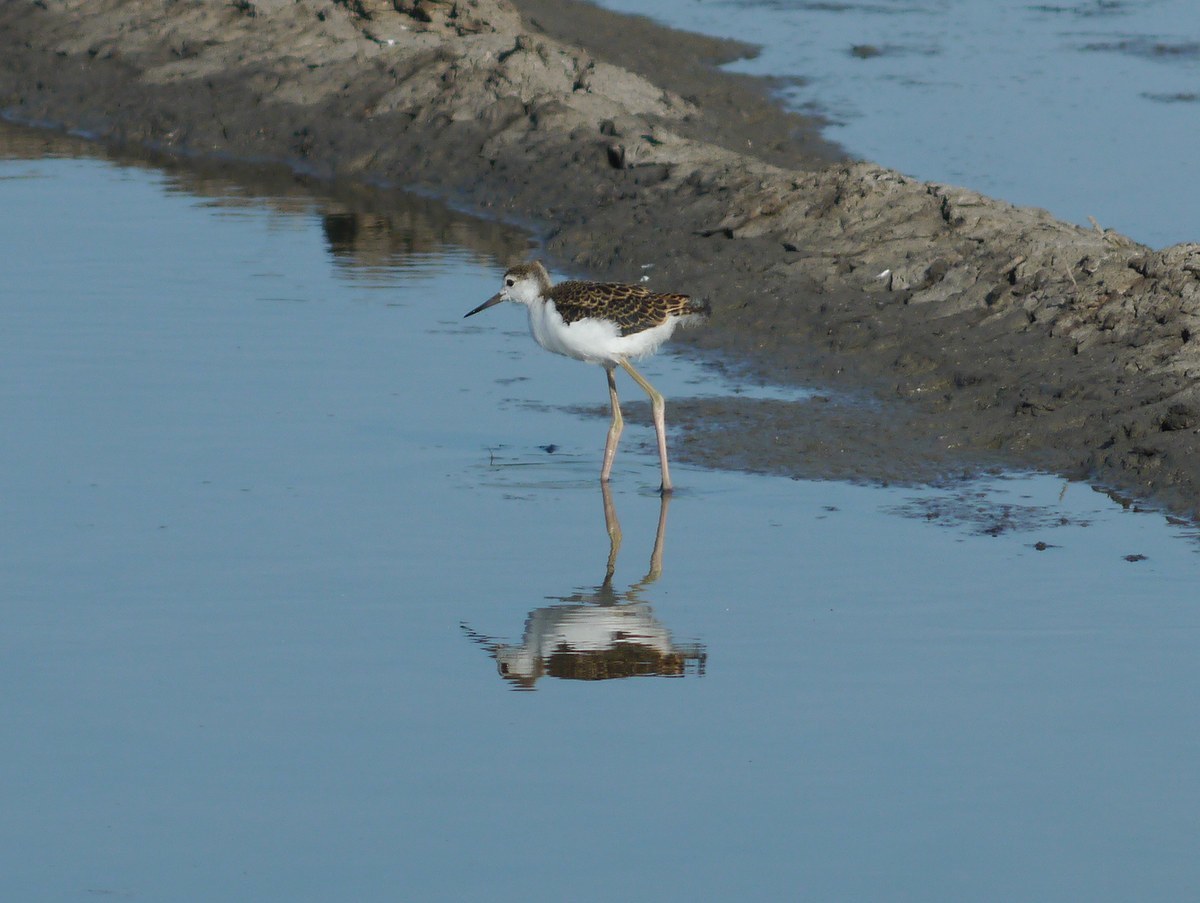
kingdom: Animalia
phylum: Chordata
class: Aves
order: Charadriiformes
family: Recurvirostridae
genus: Himantopus
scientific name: Himantopus himantopus
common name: Black-winged stilt
